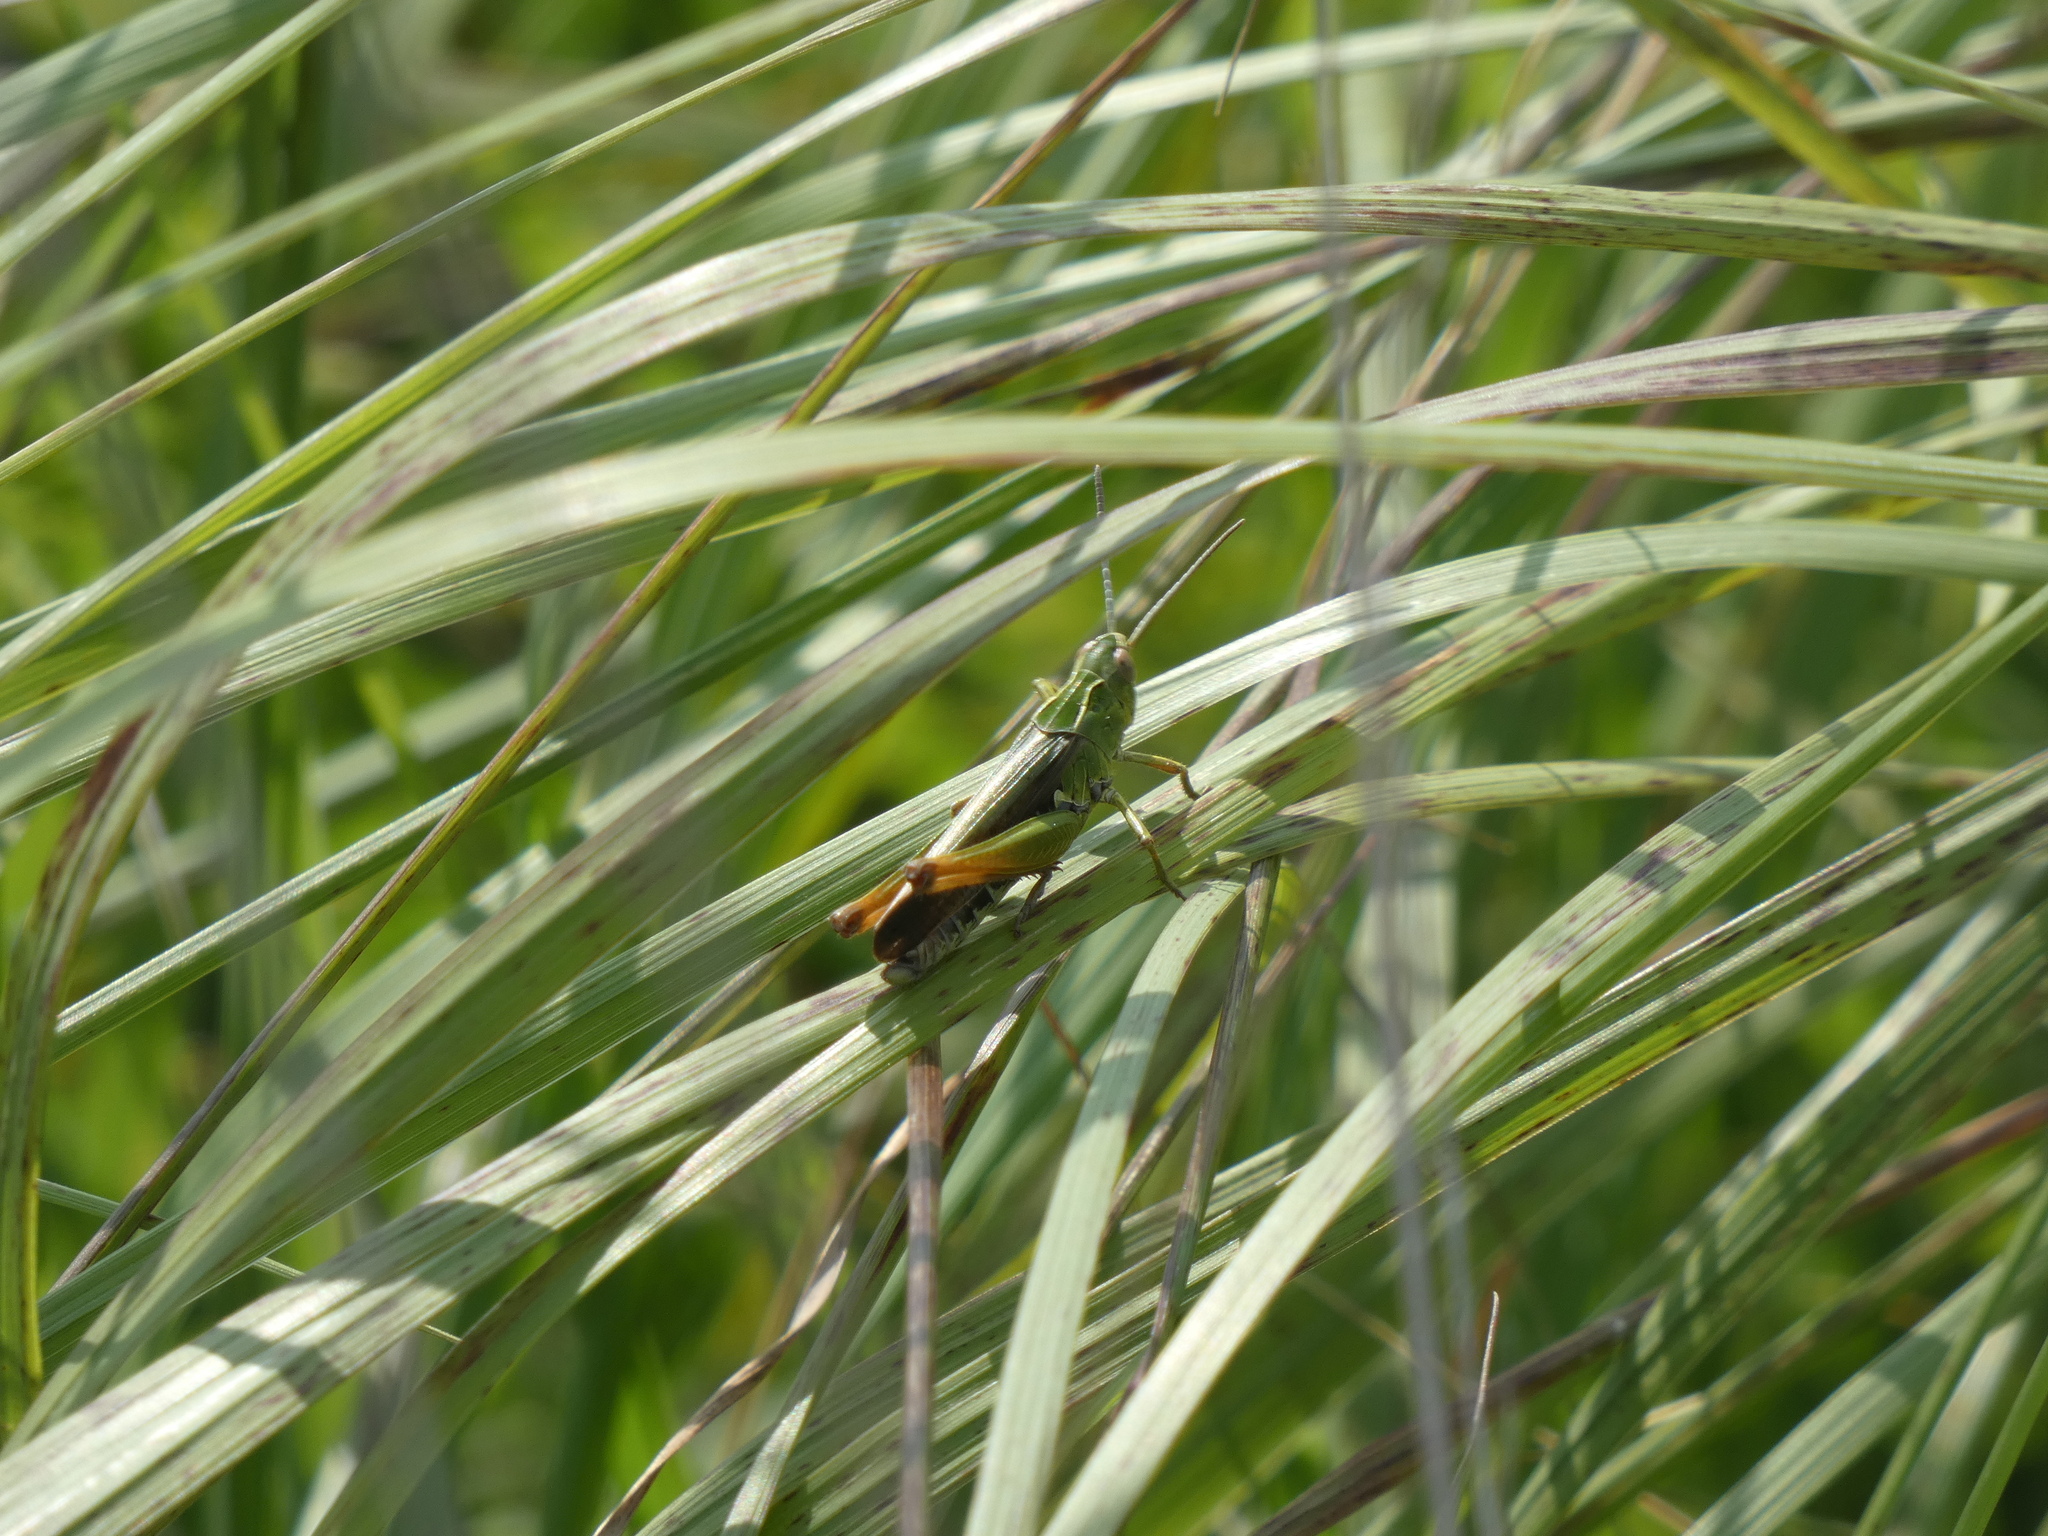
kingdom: Animalia
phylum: Arthropoda
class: Insecta
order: Orthoptera
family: Acrididae
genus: Omocestus
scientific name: Omocestus viridulus
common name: Common green grasshopper
